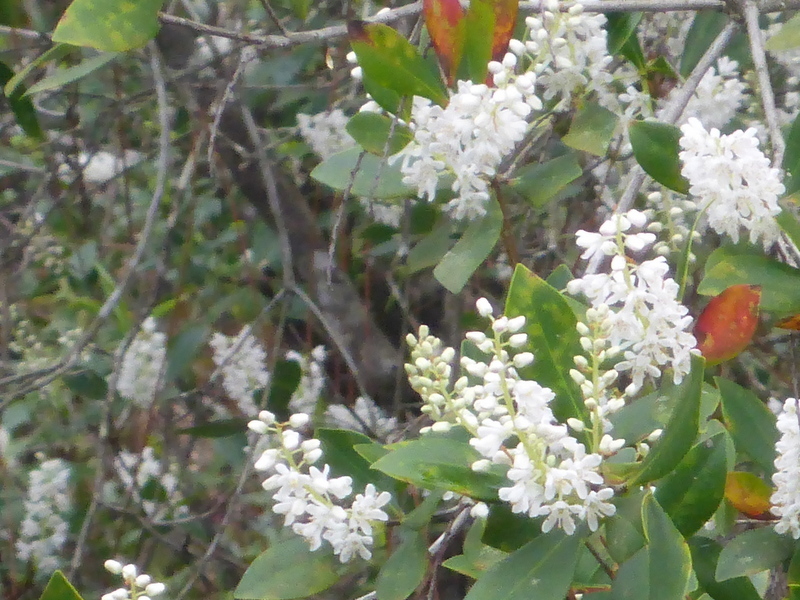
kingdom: Plantae
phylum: Tracheophyta
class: Magnoliopsida
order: Ericales
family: Cyrillaceae
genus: Cliftonia
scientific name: Cliftonia monophylla
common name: Titi
